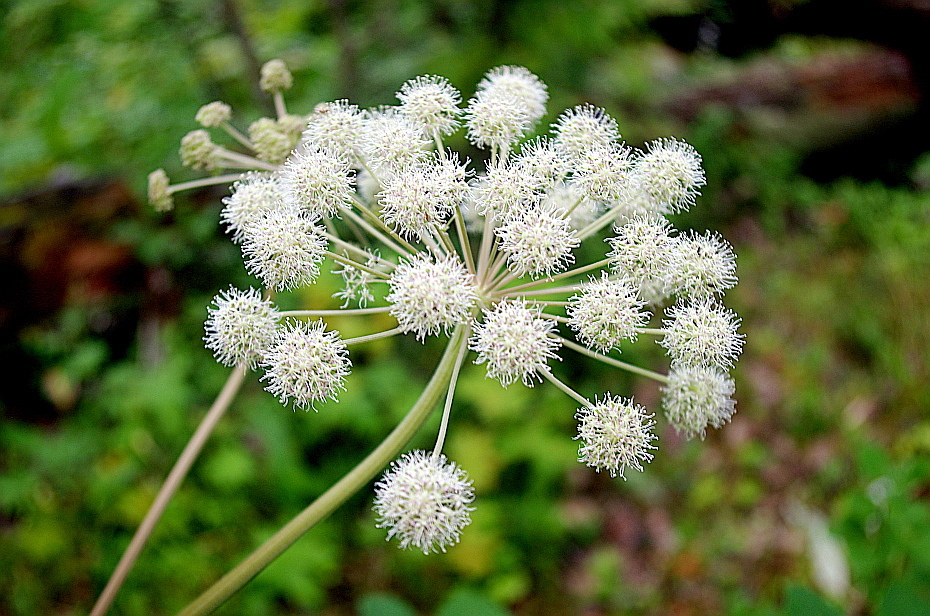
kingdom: Plantae
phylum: Tracheophyta
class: Magnoliopsida
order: Apiales
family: Apiaceae
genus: Angelica
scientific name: Angelica sylvestris
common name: Wild angelica
